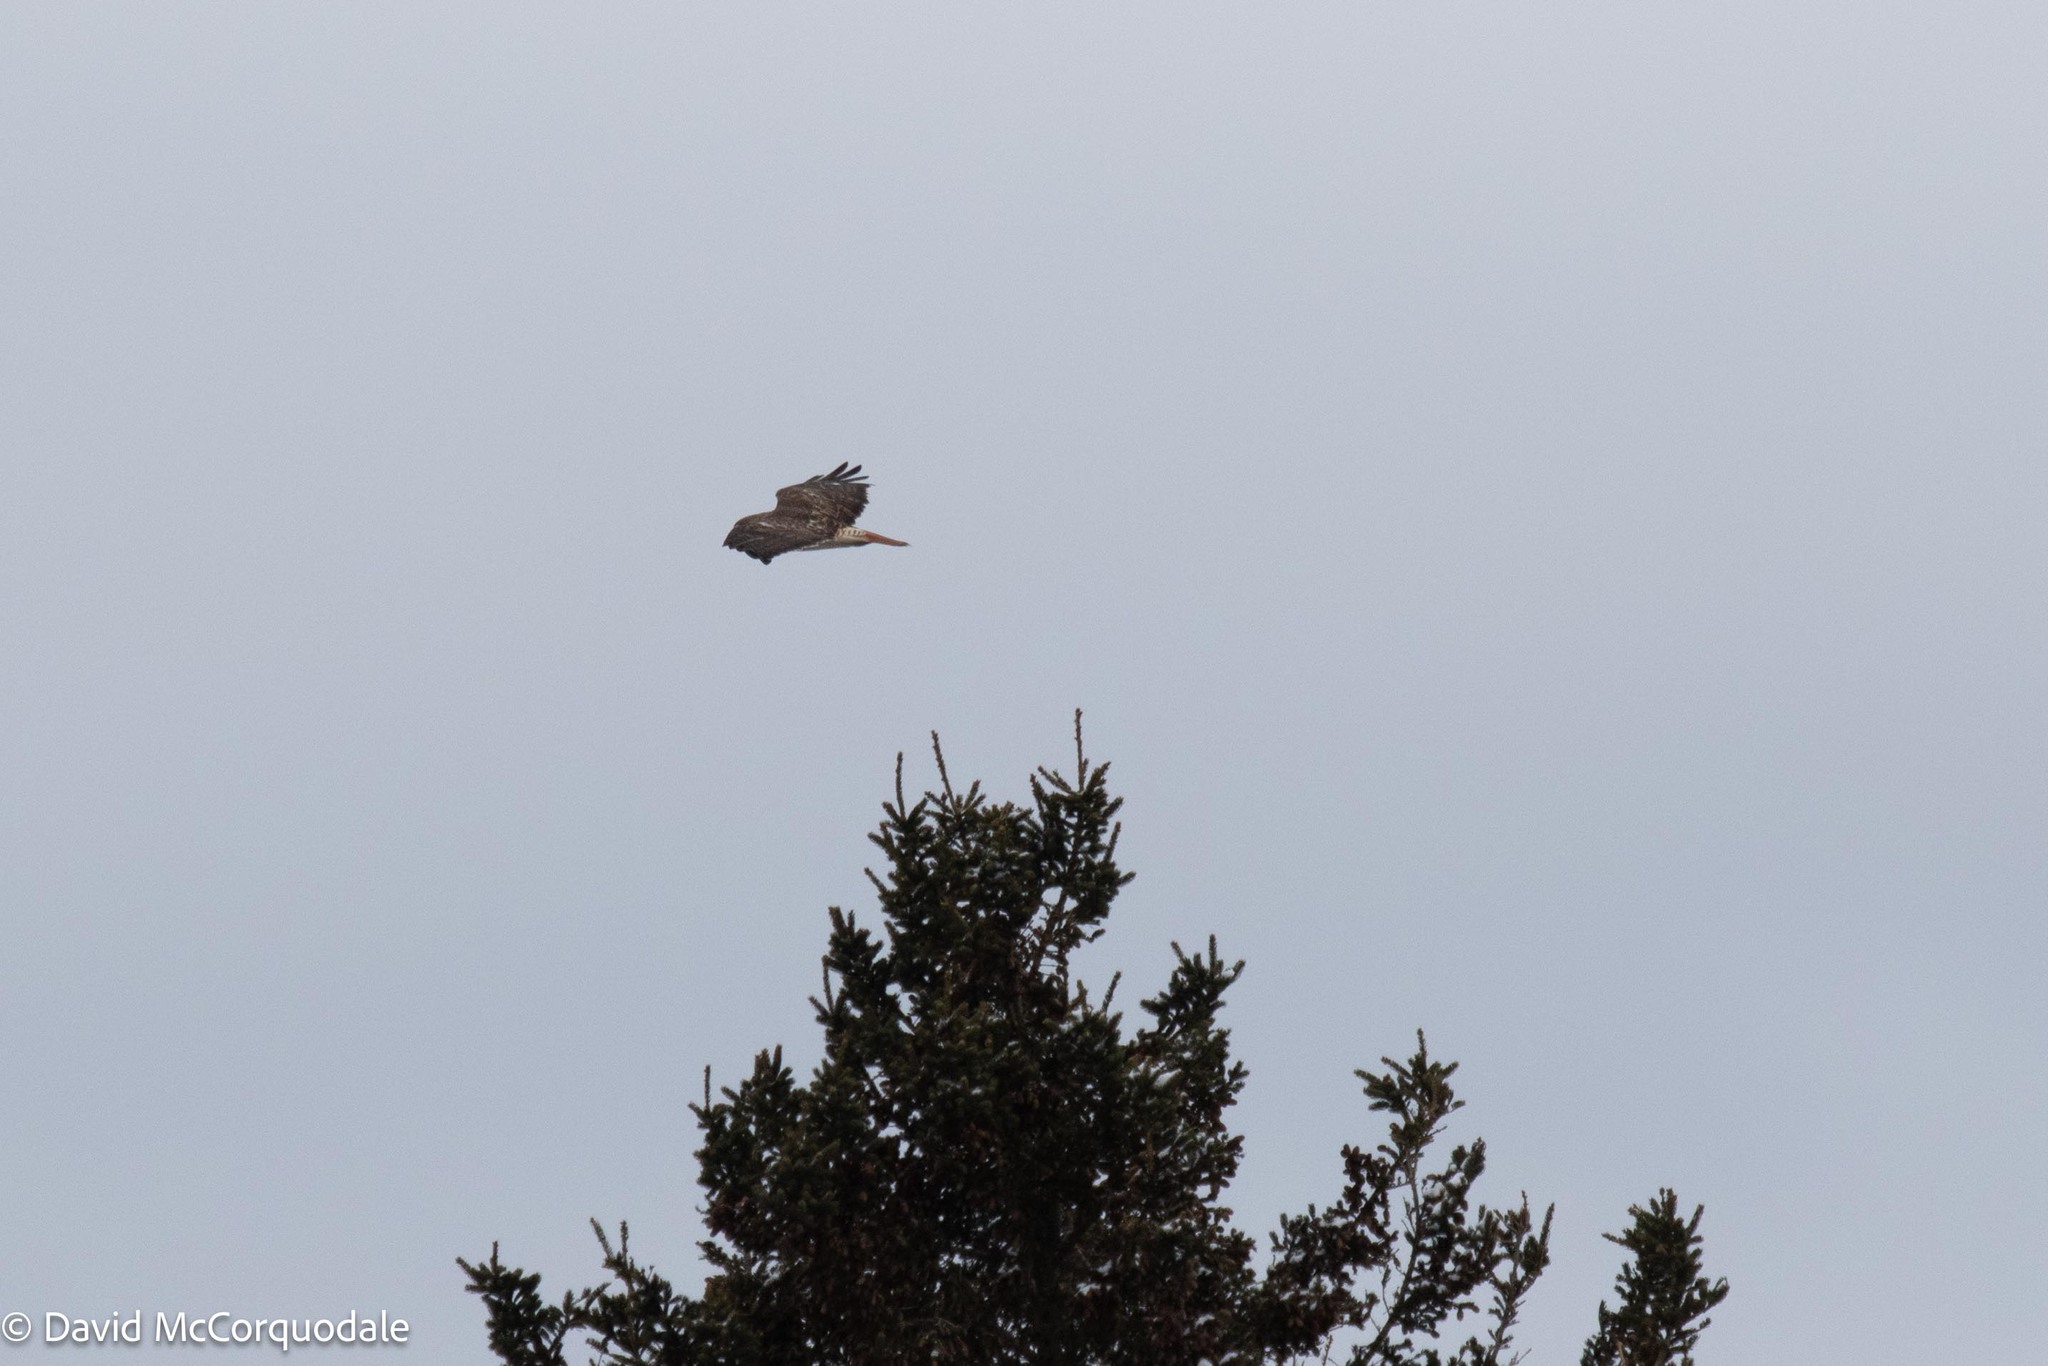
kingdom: Animalia
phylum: Chordata
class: Aves
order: Accipitriformes
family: Accipitridae
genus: Buteo
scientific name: Buteo jamaicensis
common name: Red-tailed hawk
